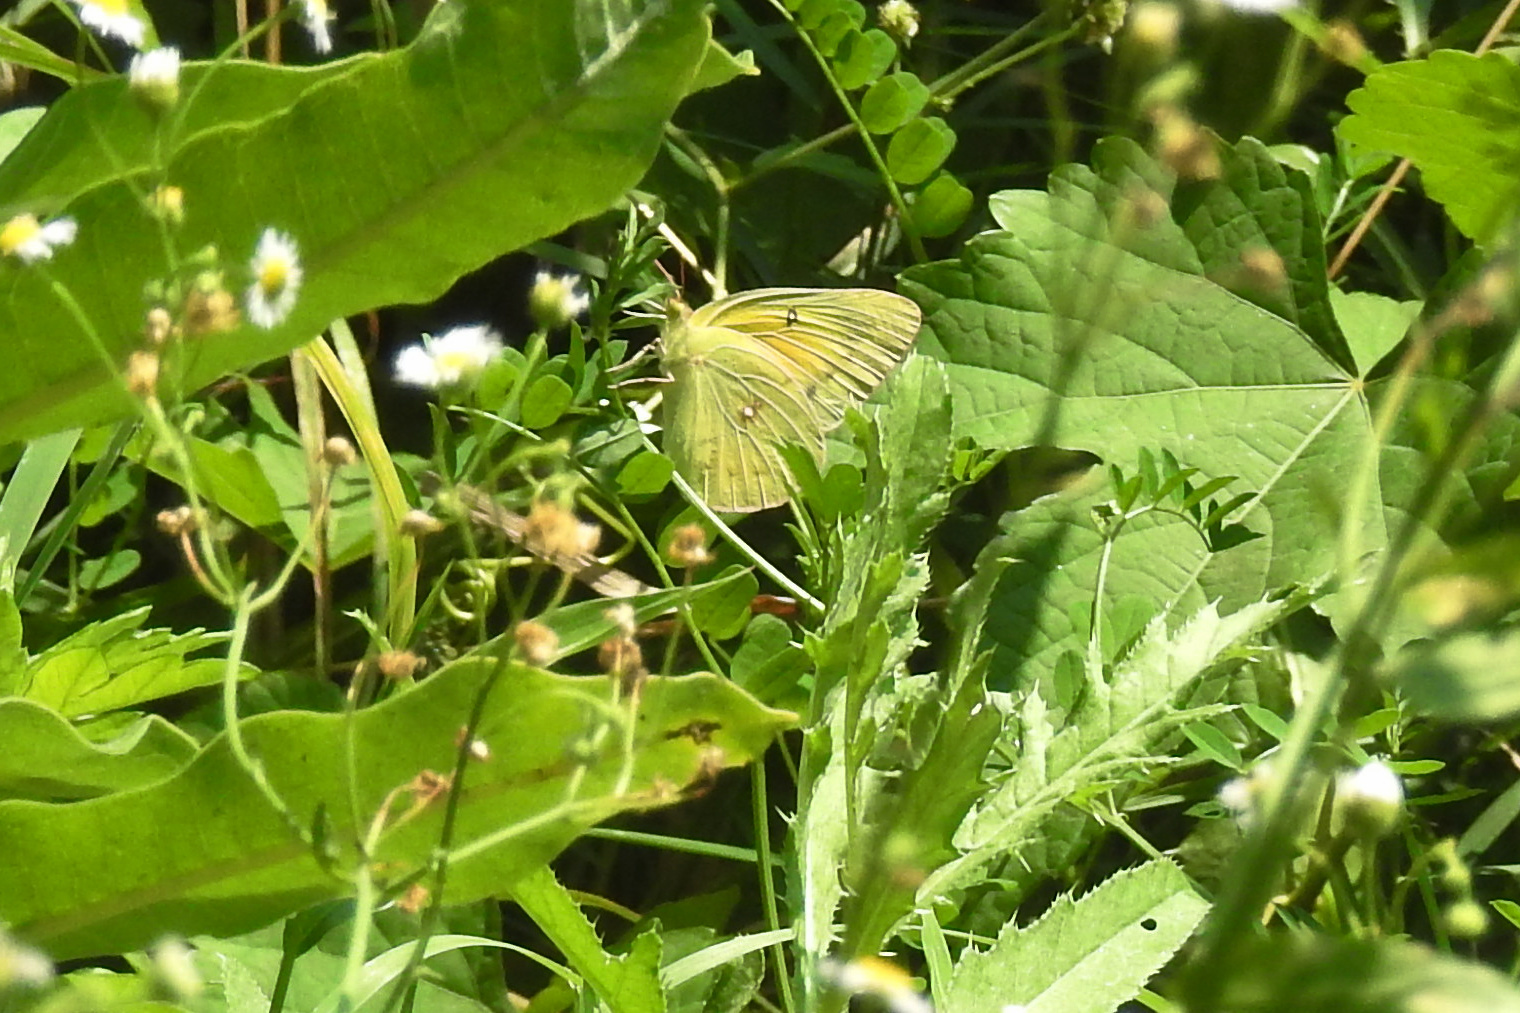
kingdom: Animalia
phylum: Arthropoda
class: Insecta
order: Lepidoptera
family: Pieridae
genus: Colias
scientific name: Colias eurytheme
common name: Alfalfa butterfly
